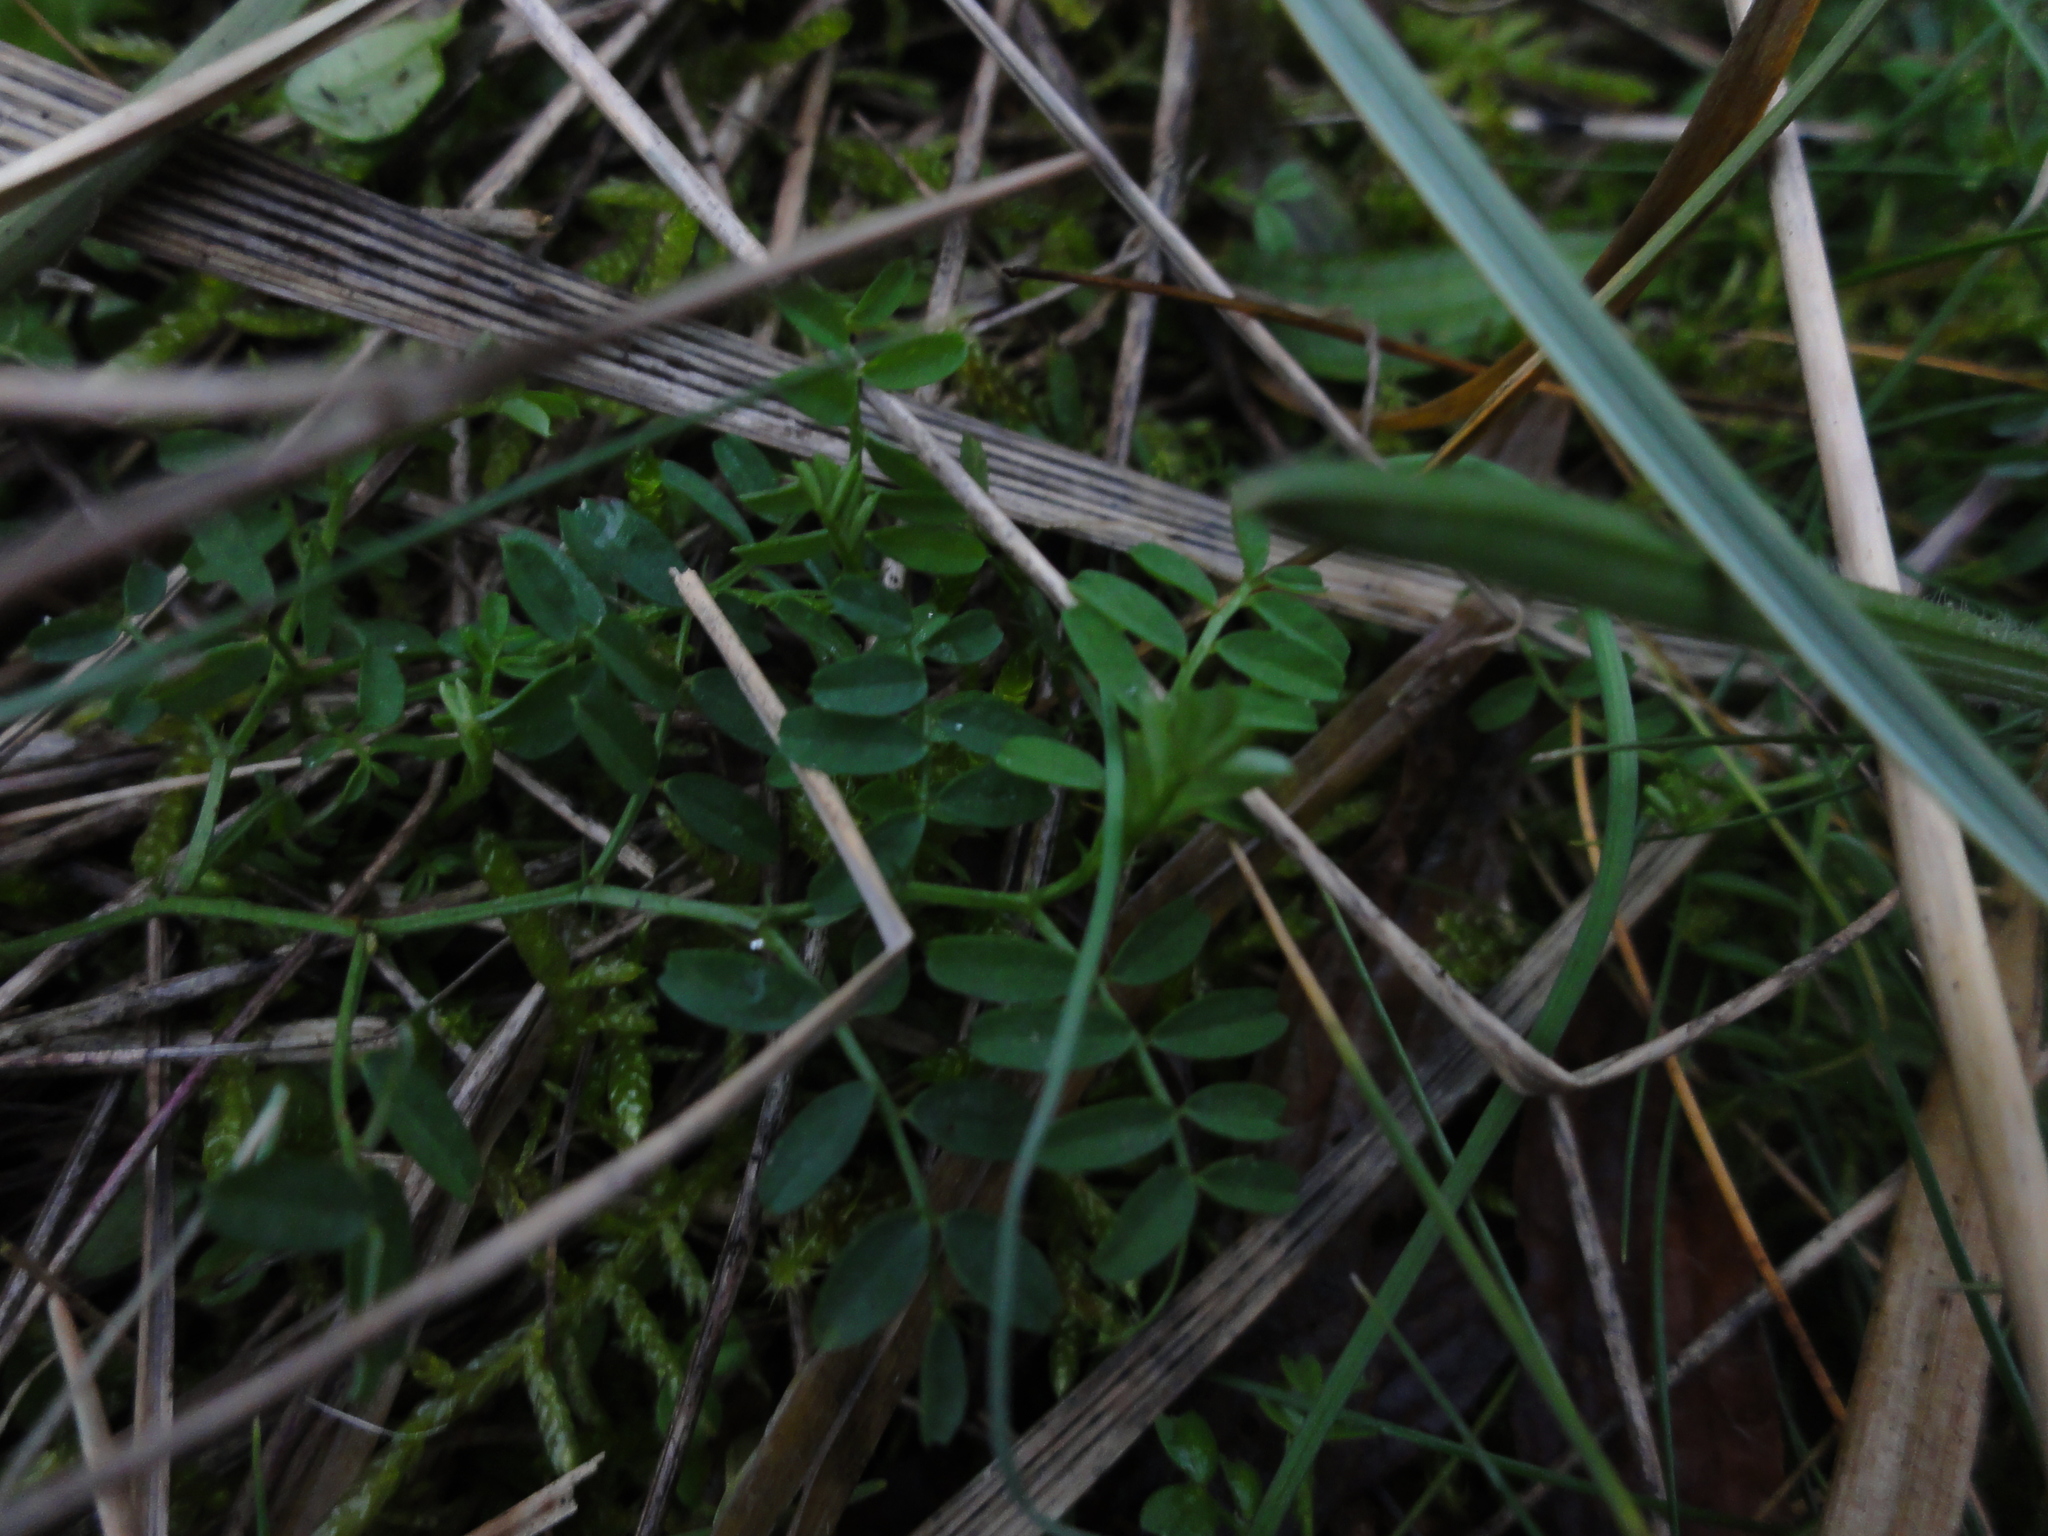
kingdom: Plantae
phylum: Tracheophyta
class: Magnoliopsida
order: Fabales
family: Fabaceae
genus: Vicia
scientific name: Vicia
